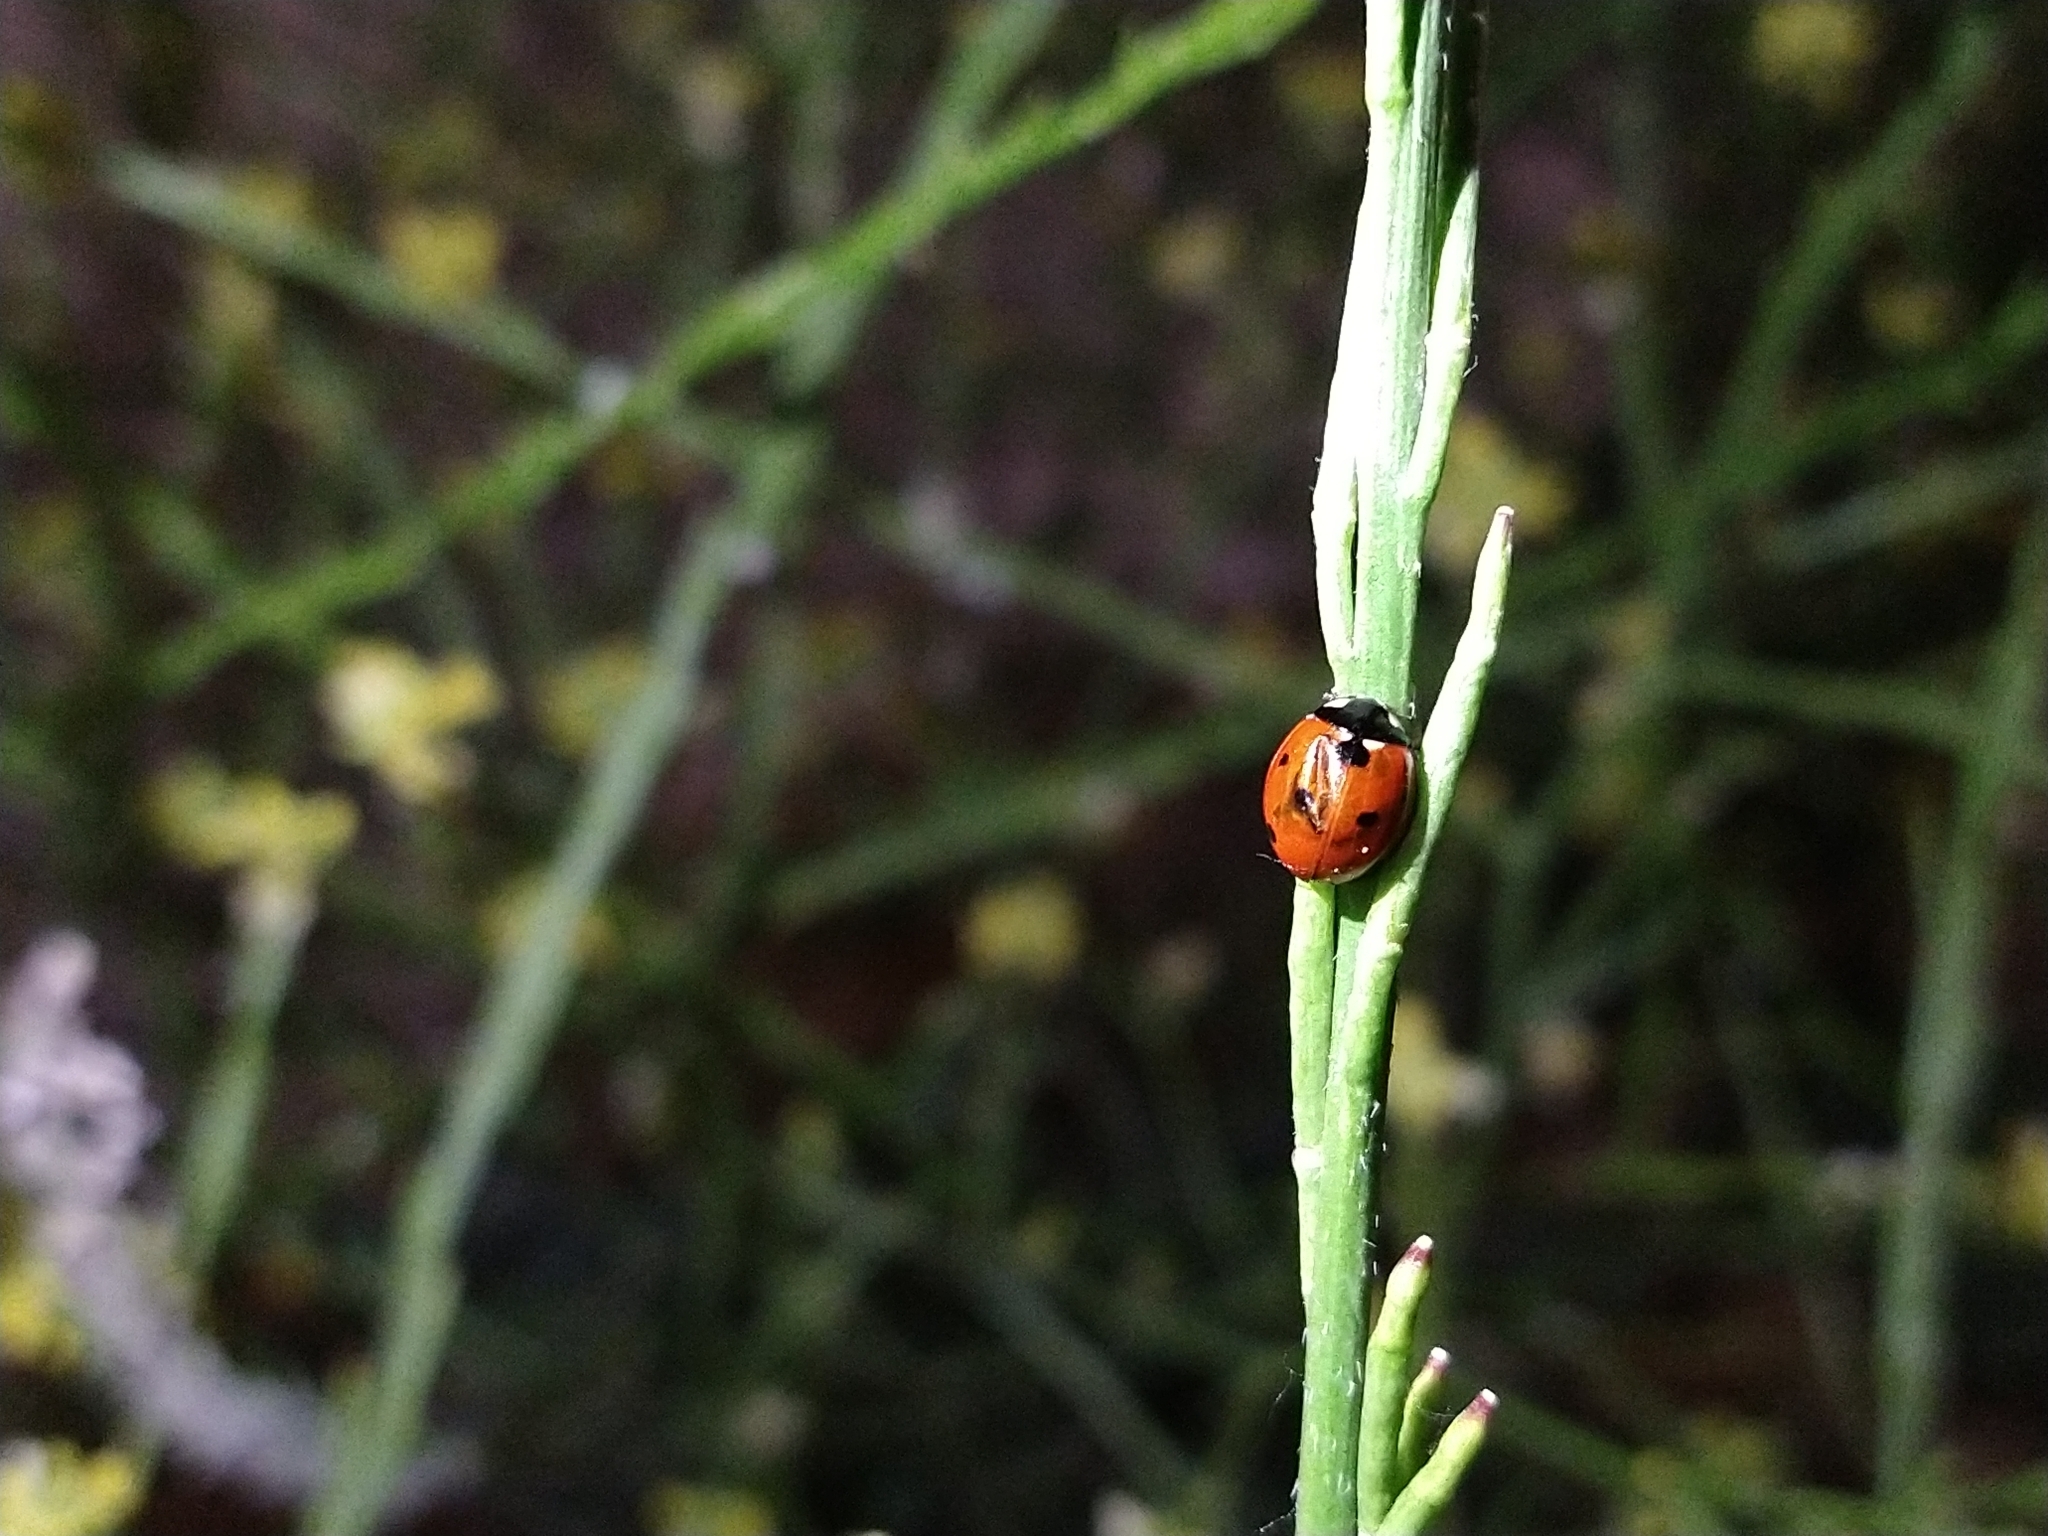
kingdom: Animalia
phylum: Arthropoda
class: Insecta
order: Coleoptera
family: Coccinellidae
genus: Coccinella
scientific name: Coccinella septempunctata
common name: Sevenspotted lady beetle
